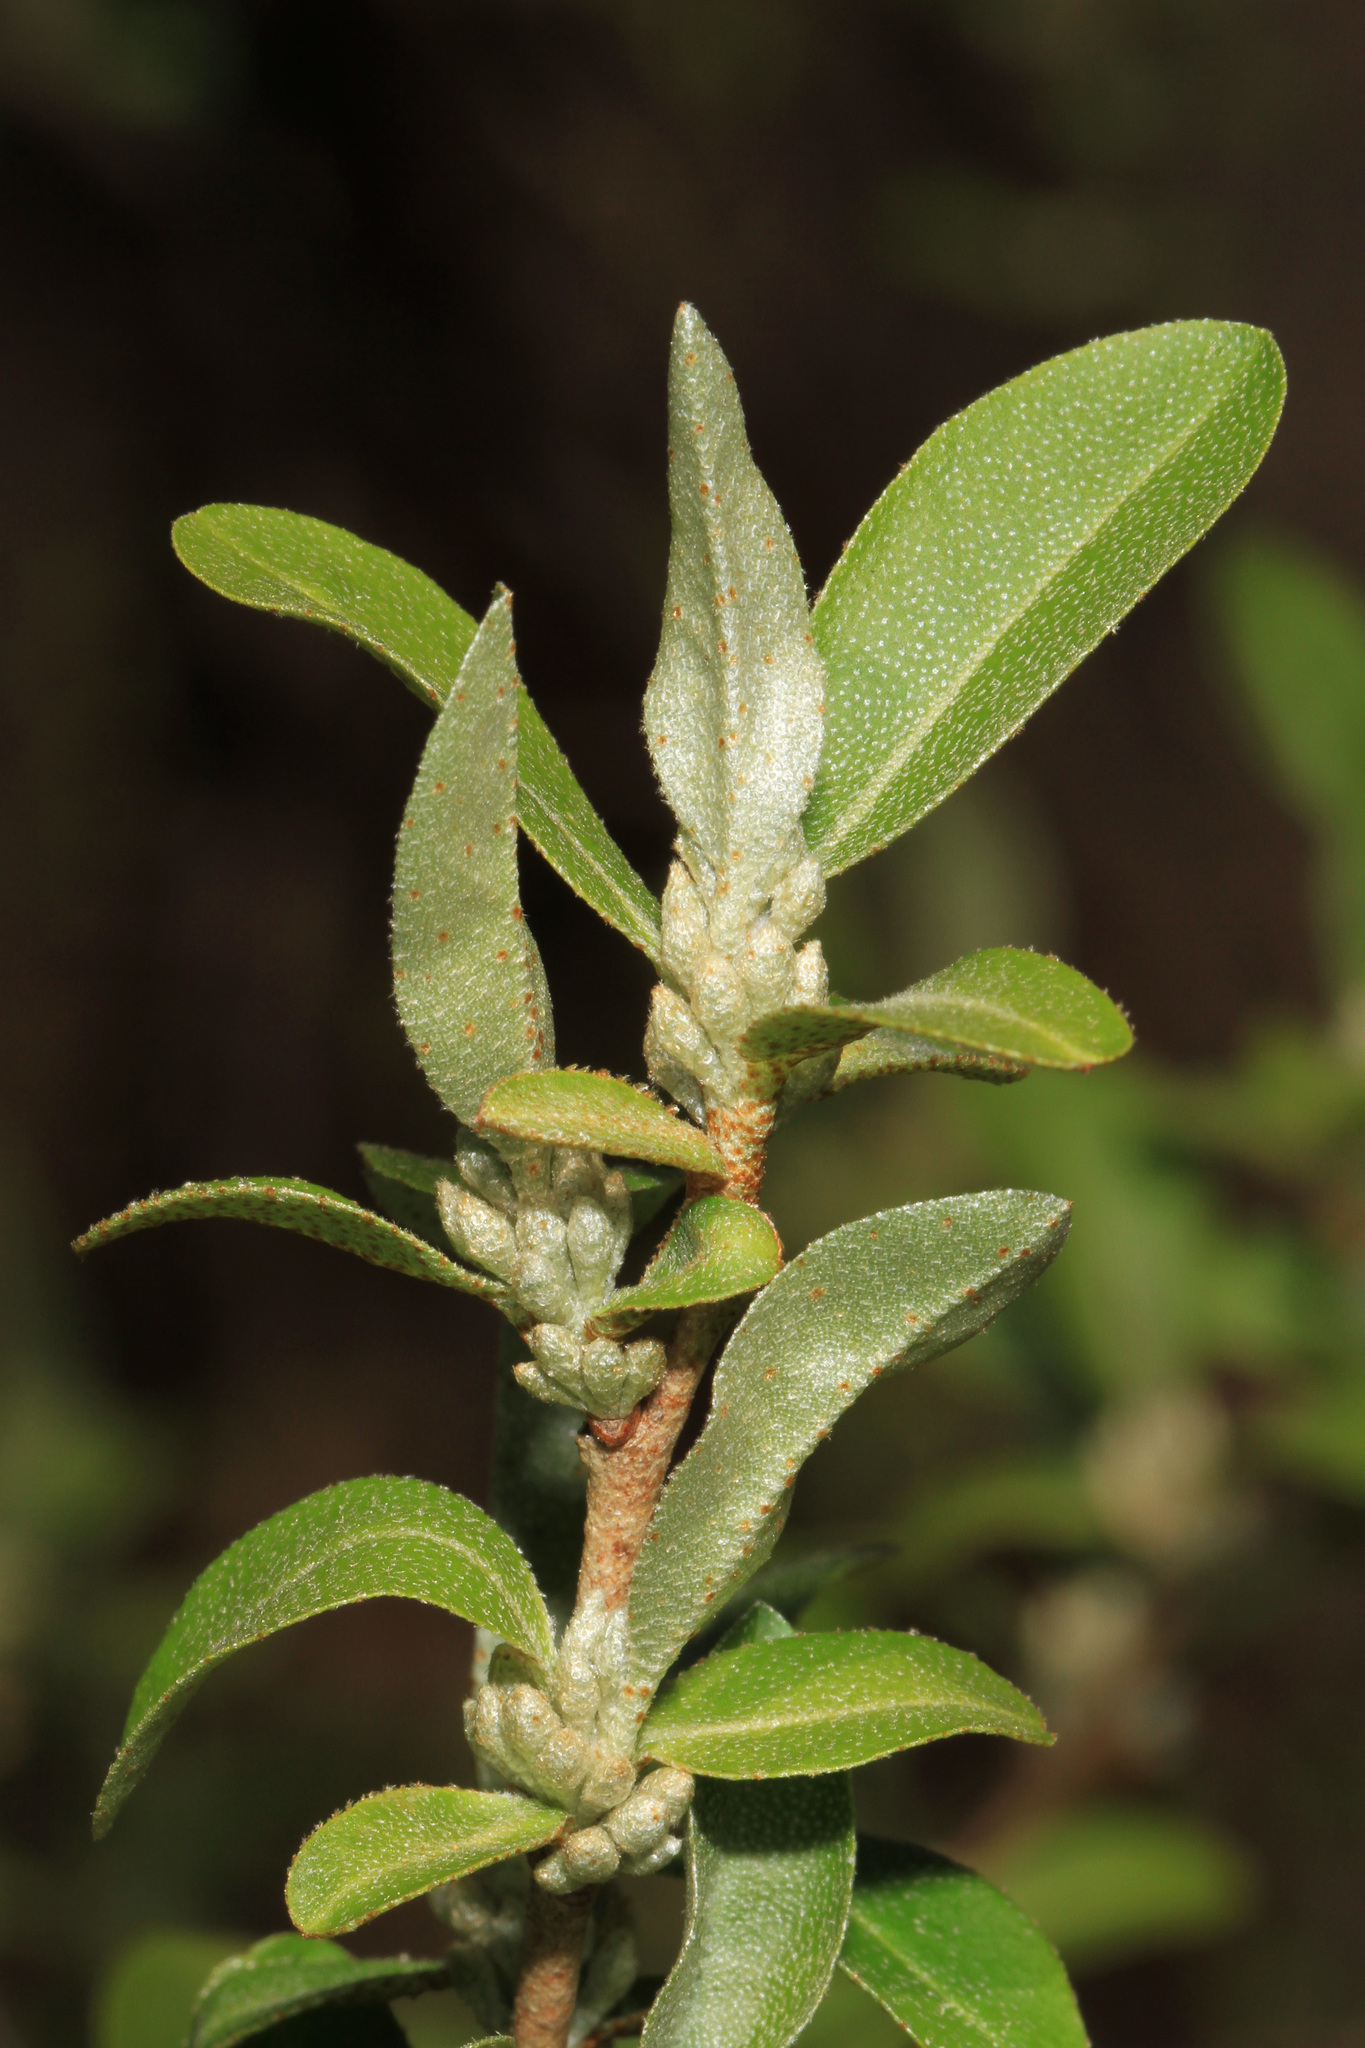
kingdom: Plantae
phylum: Tracheophyta
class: Magnoliopsida
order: Rosales
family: Elaeagnaceae
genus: Elaeagnus
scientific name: Elaeagnus umbellata
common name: Autumn olive
